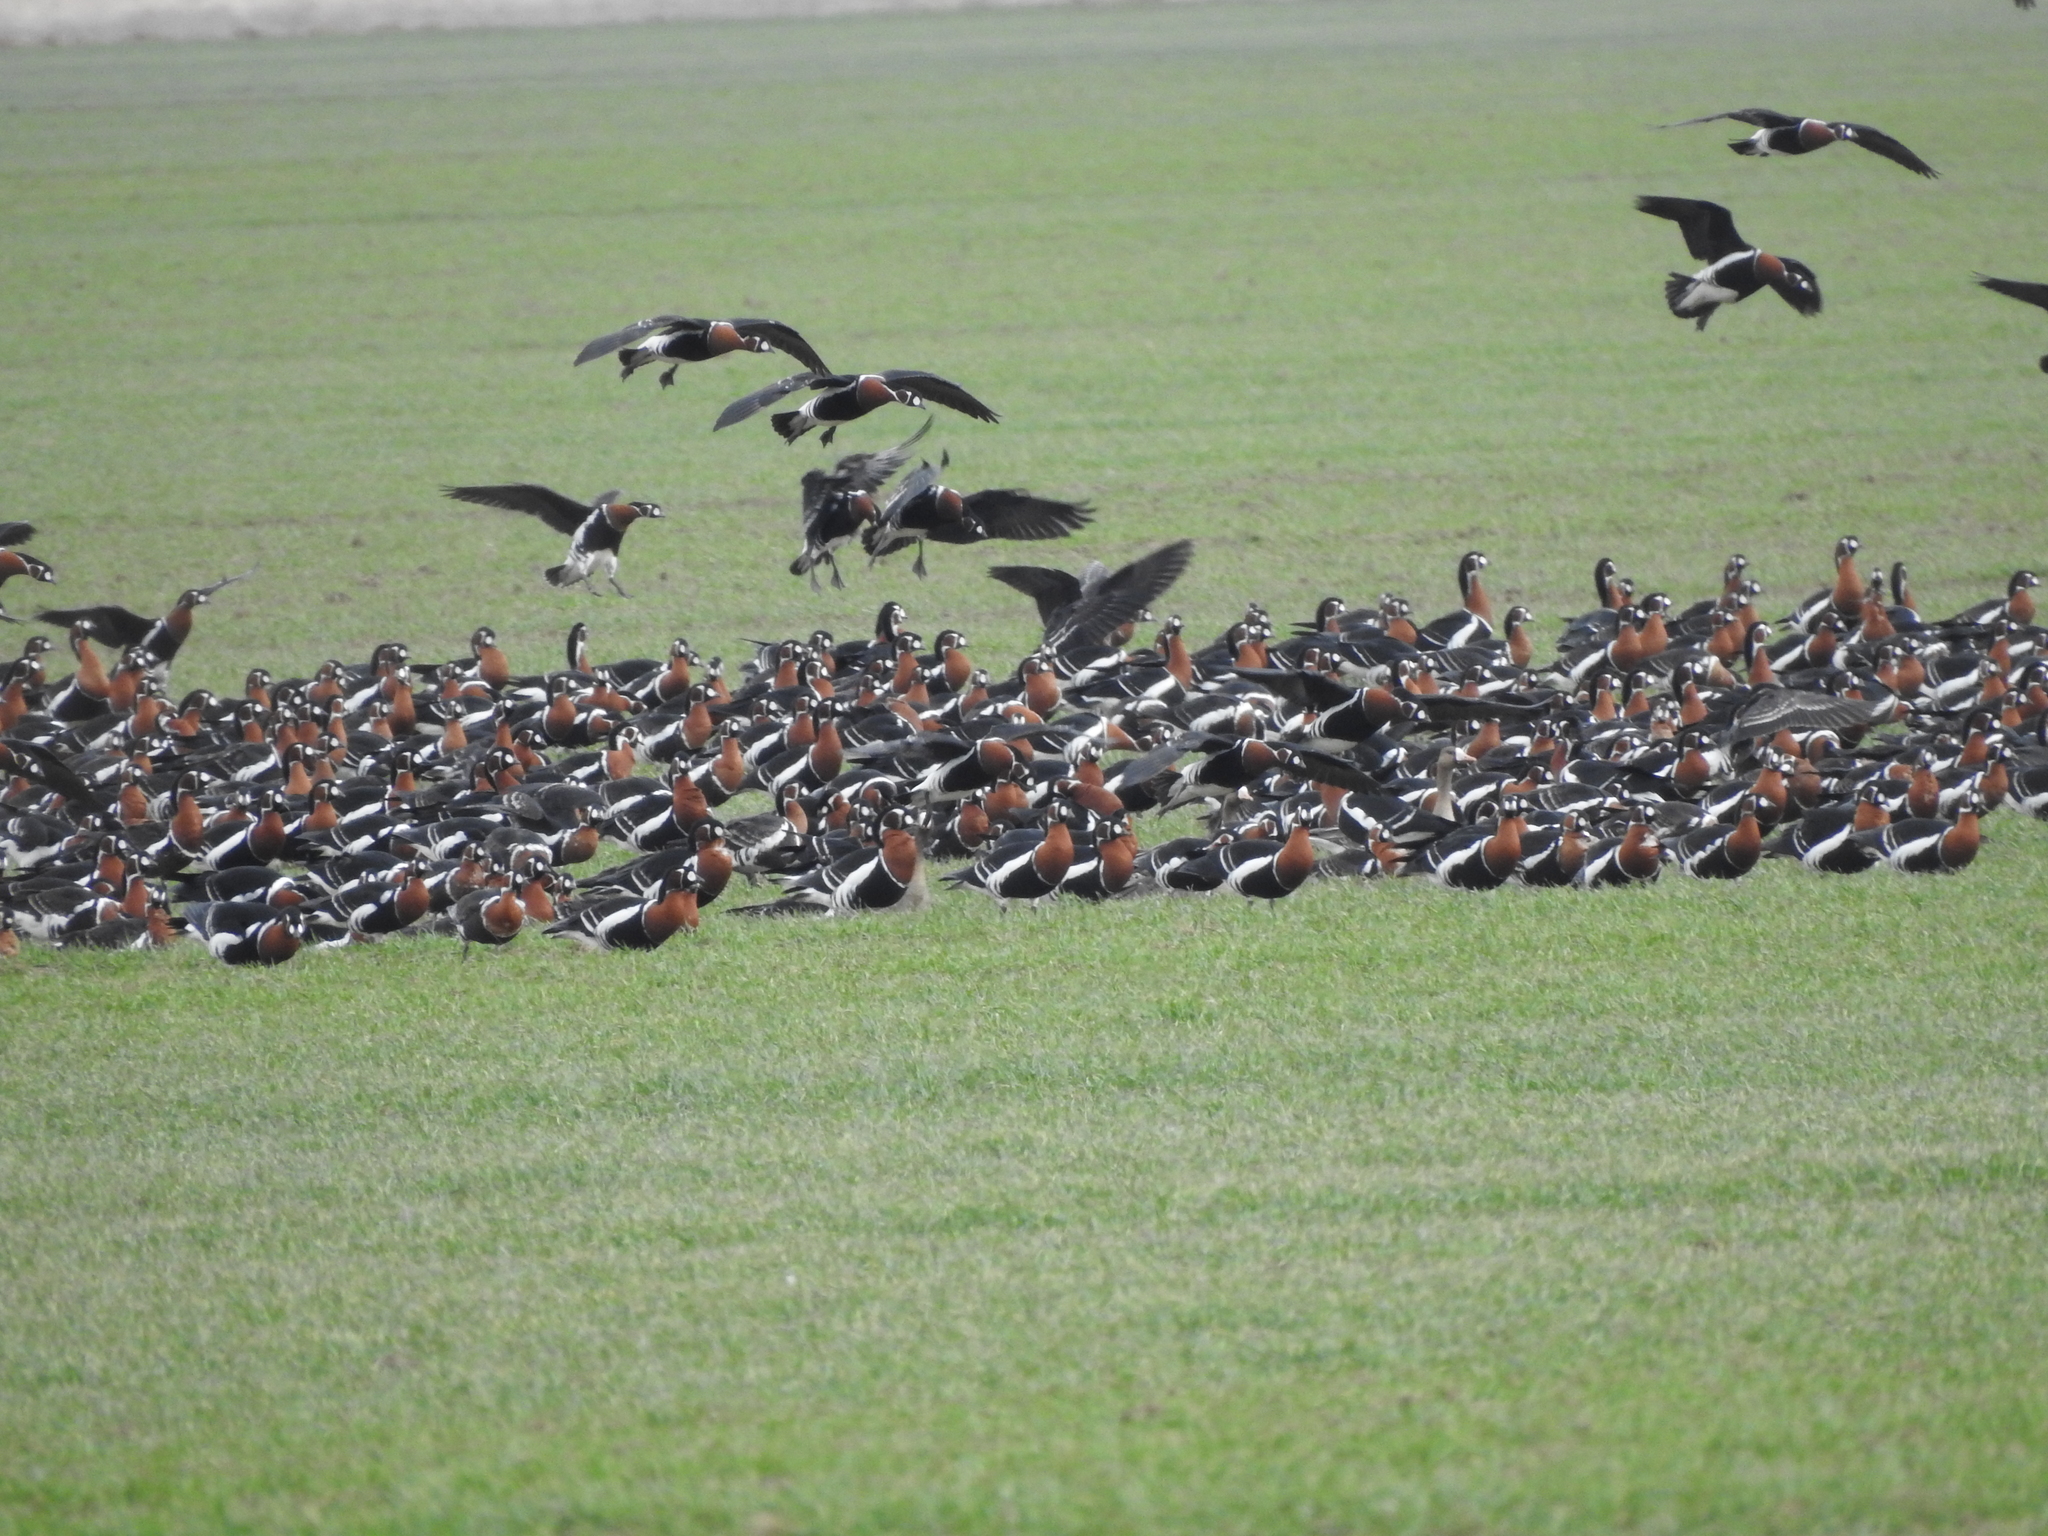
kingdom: Animalia
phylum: Chordata
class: Aves
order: Anseriformes
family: Anatidae
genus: Branta
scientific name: Branta ruficollis
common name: Red-breasted goose
